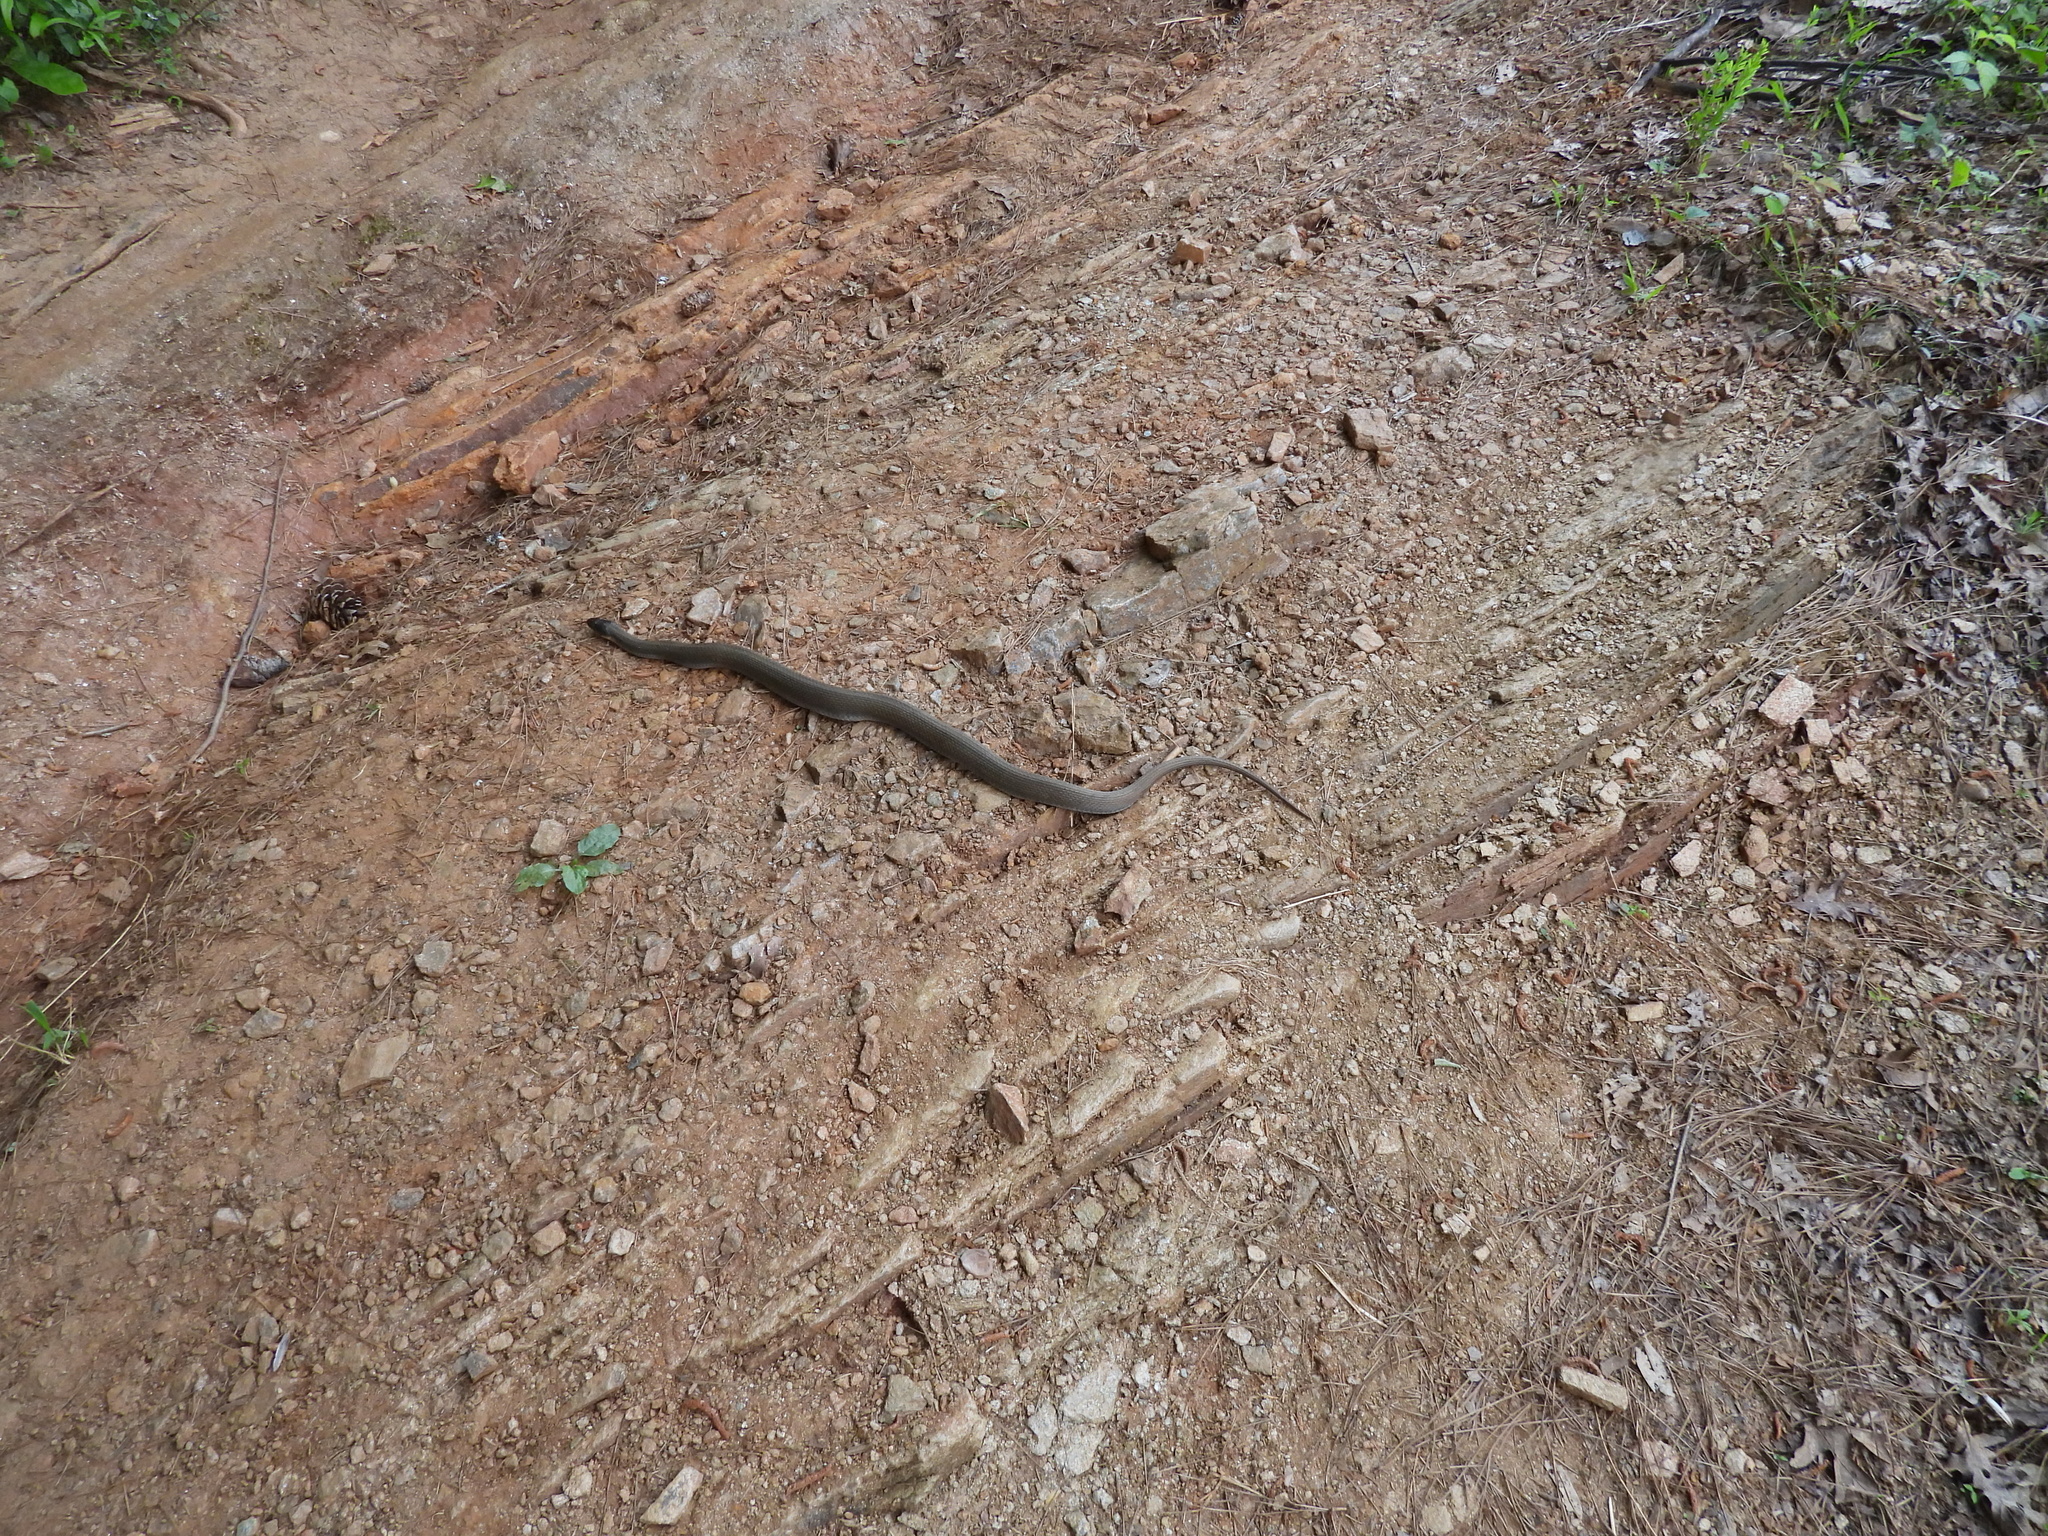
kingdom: Animalia
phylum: Chordata
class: Squamata
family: Colubridae
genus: Nerodia
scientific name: Nerodia erythrogaster
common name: Plainbelly water snake
